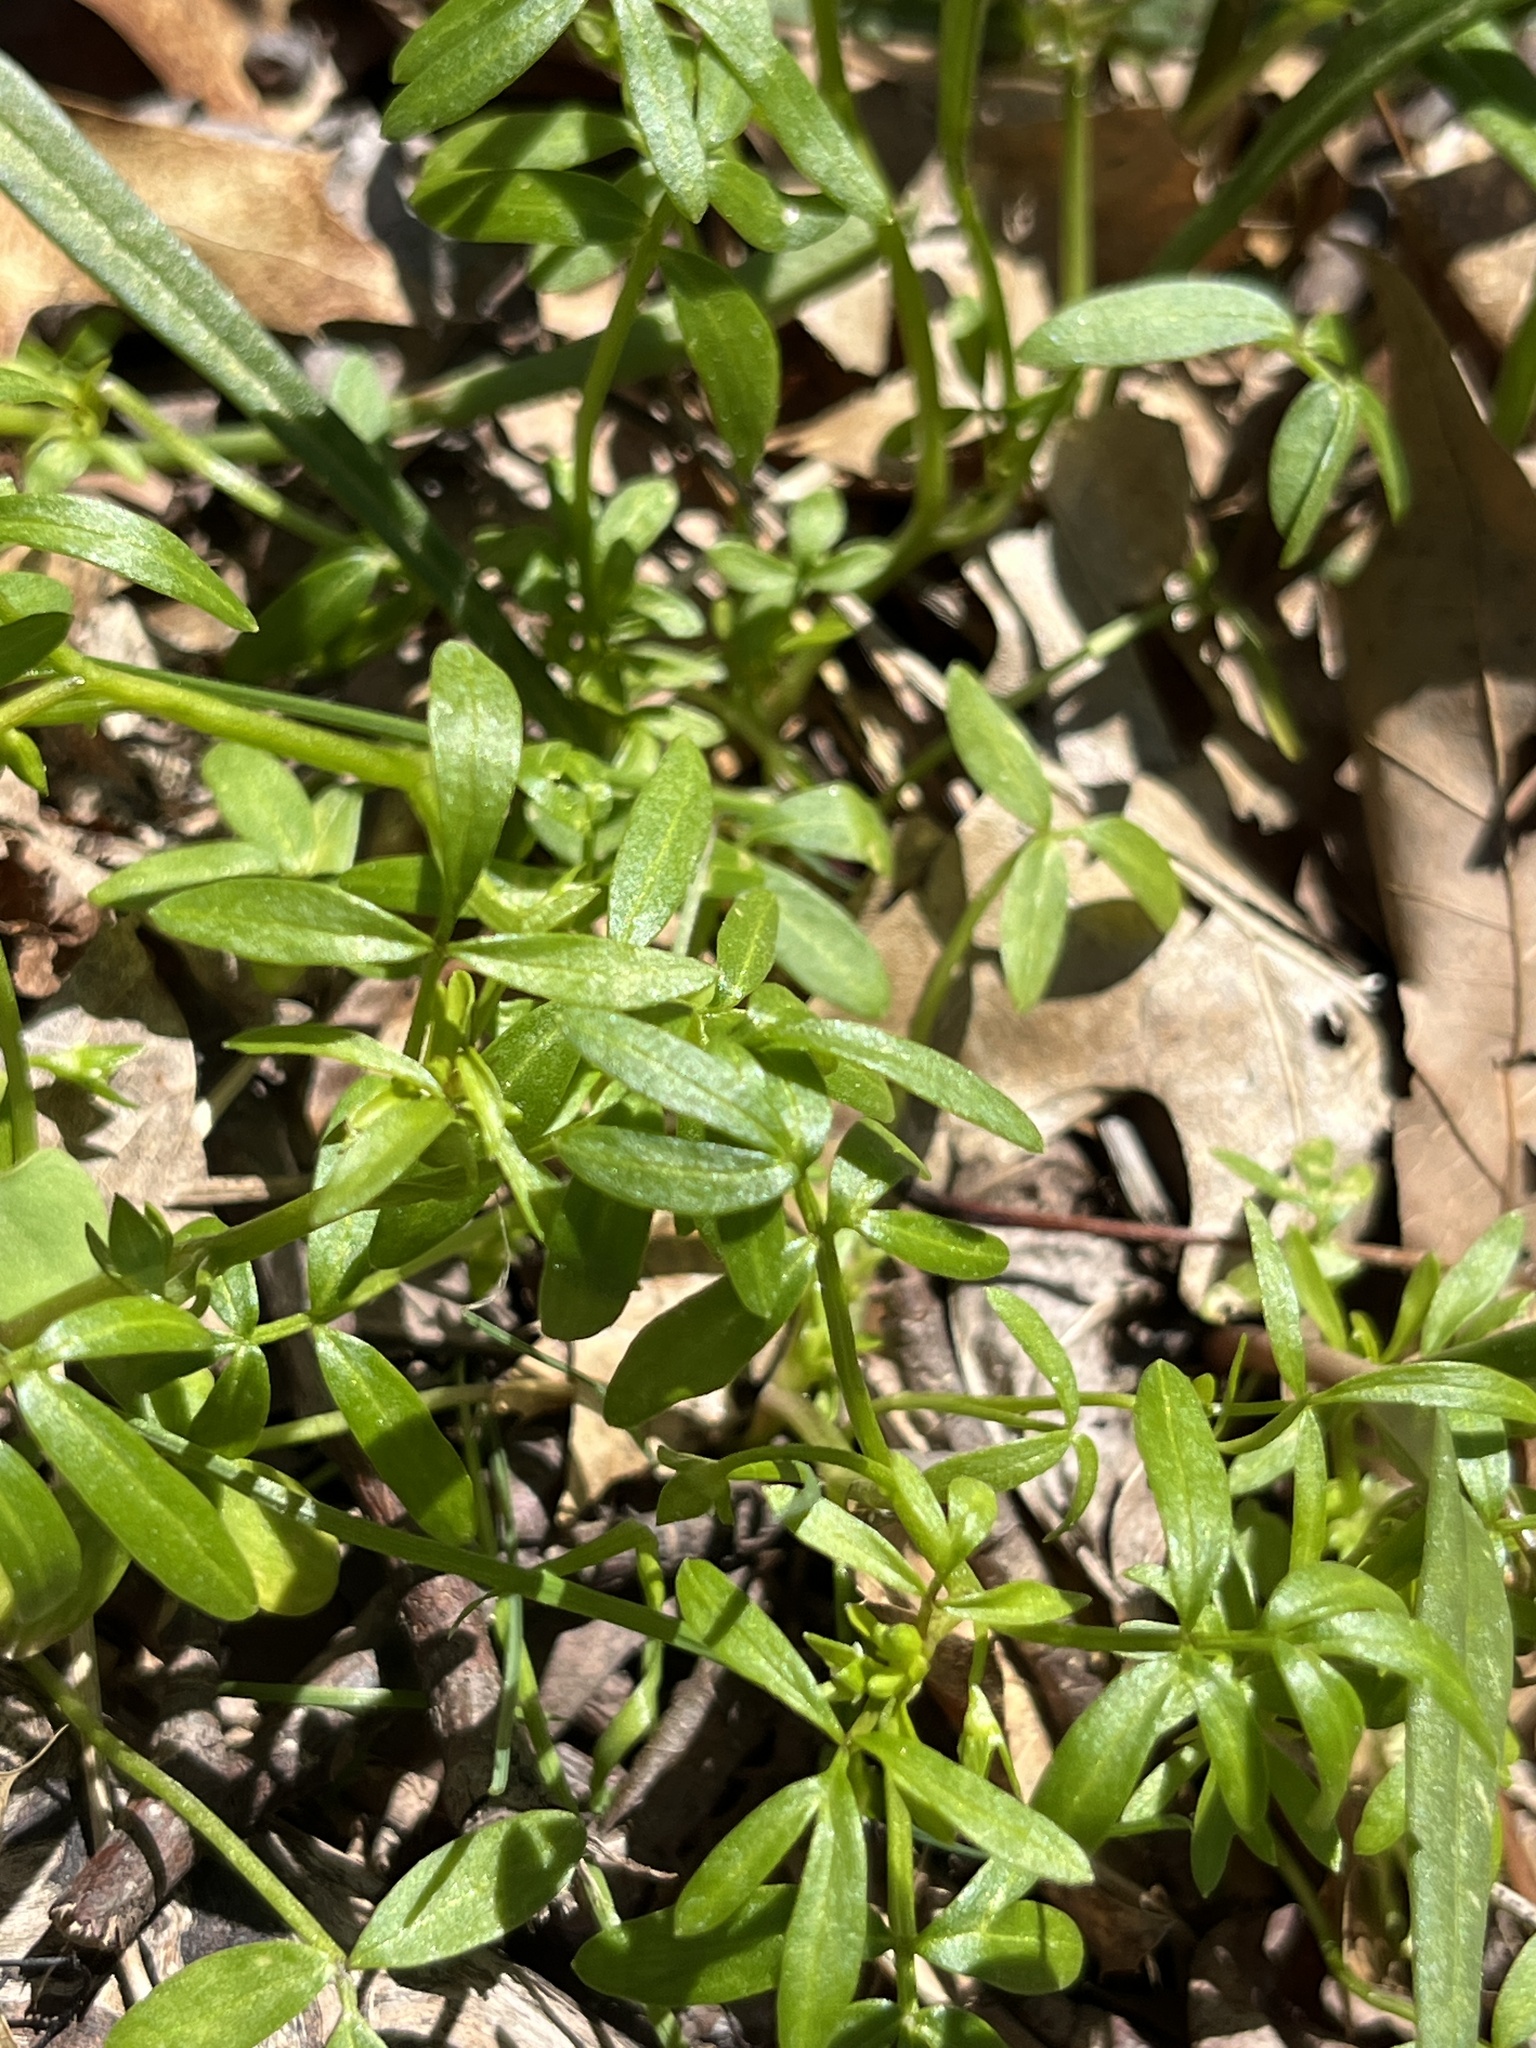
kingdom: Plantae
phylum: Tracheophyta
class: Magnoliopsida
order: Brassicales
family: Limnanthaceae
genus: Floerkea
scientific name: Floerkea proserpinacoides
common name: False mermaid
